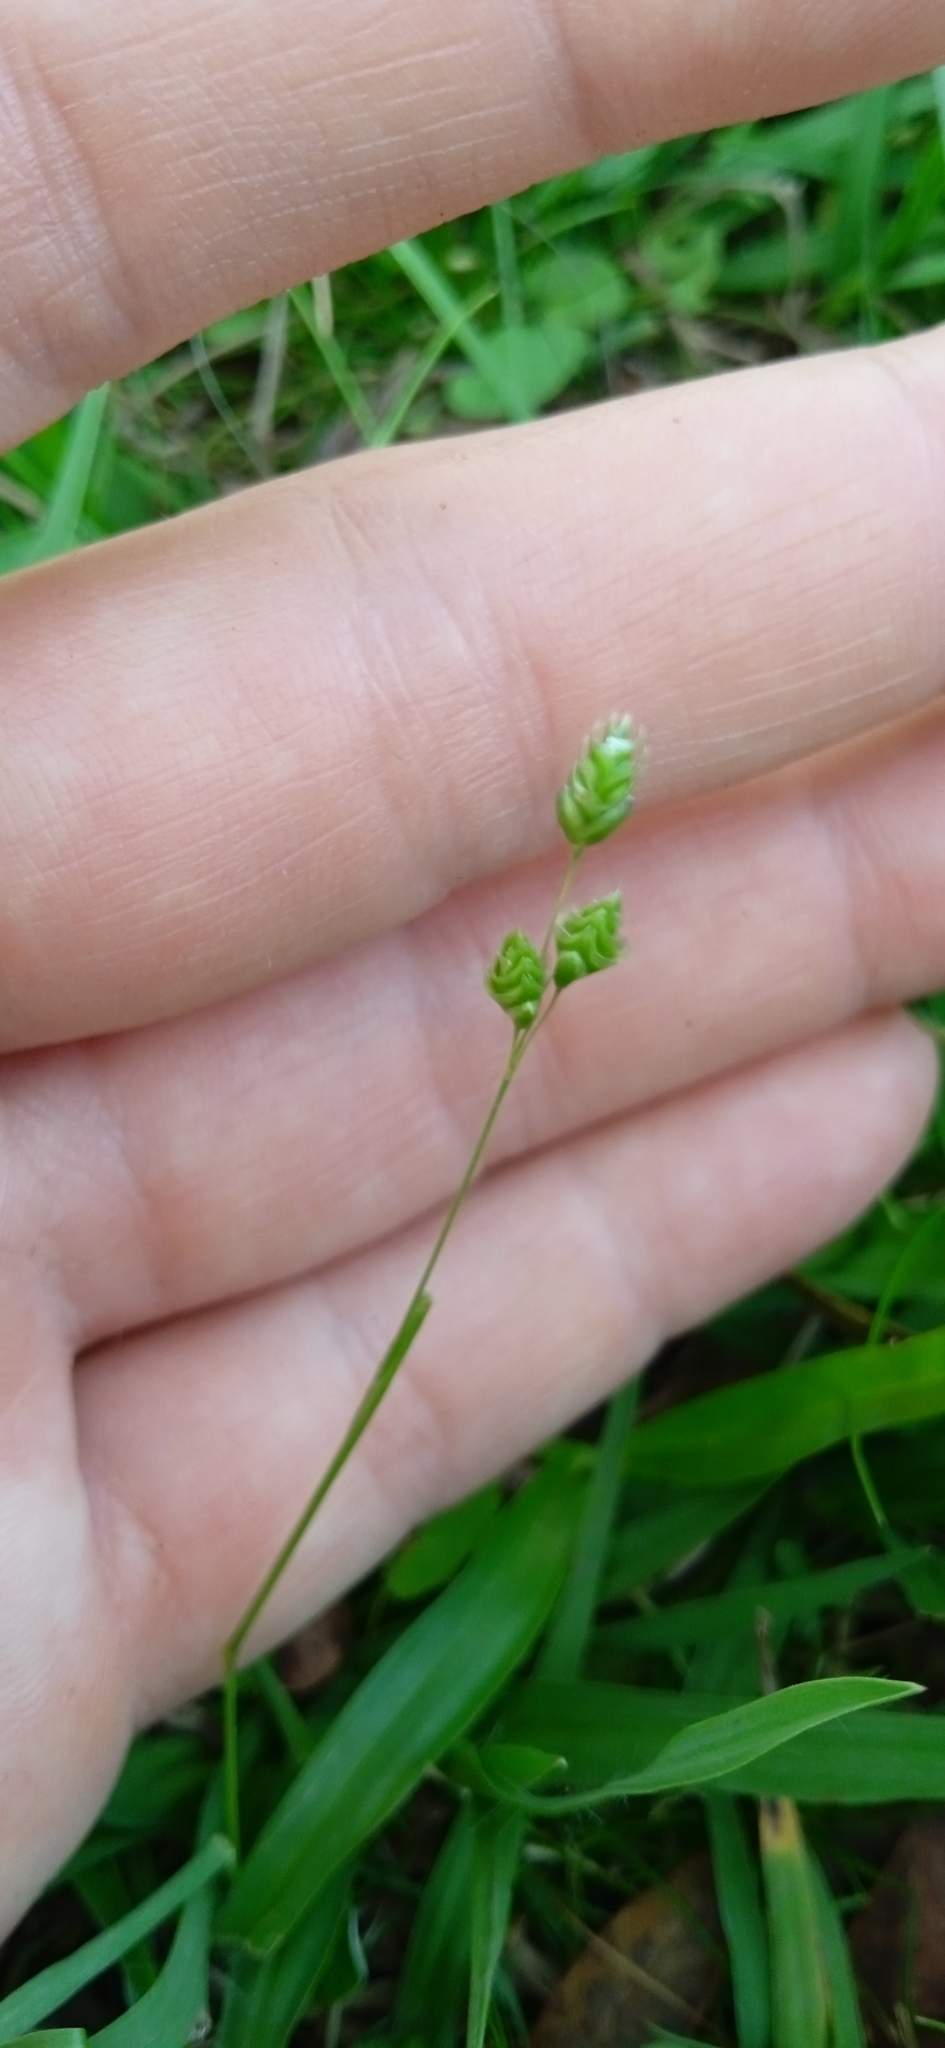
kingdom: Plantae
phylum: Tracheophyta
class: Liliopsida
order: Poales
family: Poaceae
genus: Chascolytrum
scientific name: Chascolytrum subaristatum
